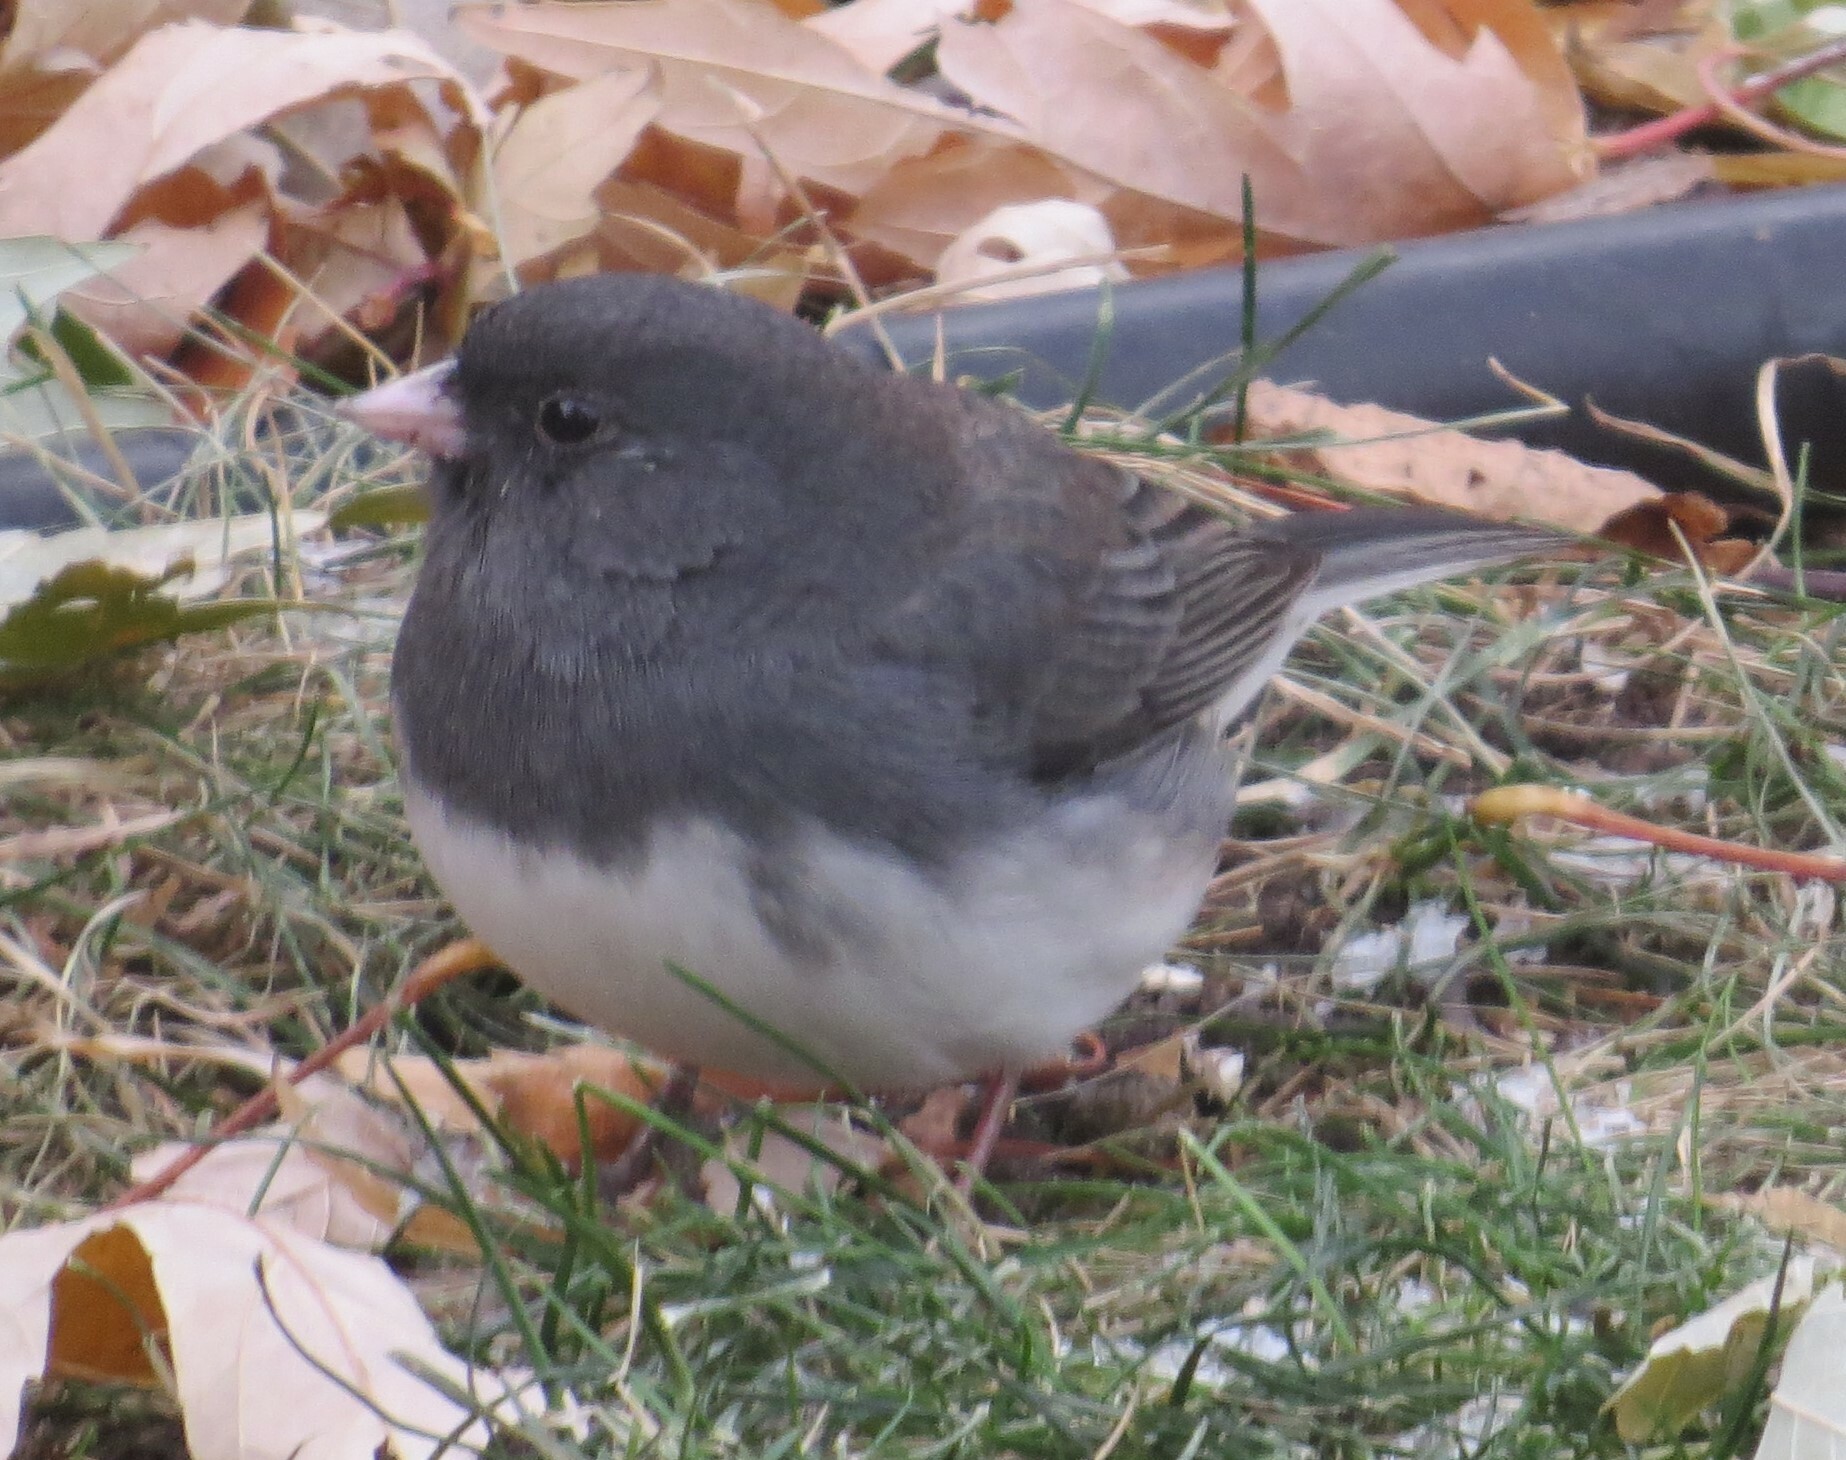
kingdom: Animalia
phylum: Chordata
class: Aves
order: Passeriformes
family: Passerellidae
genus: Junco
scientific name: Junco hyemalis
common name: Dark-eyed junco
